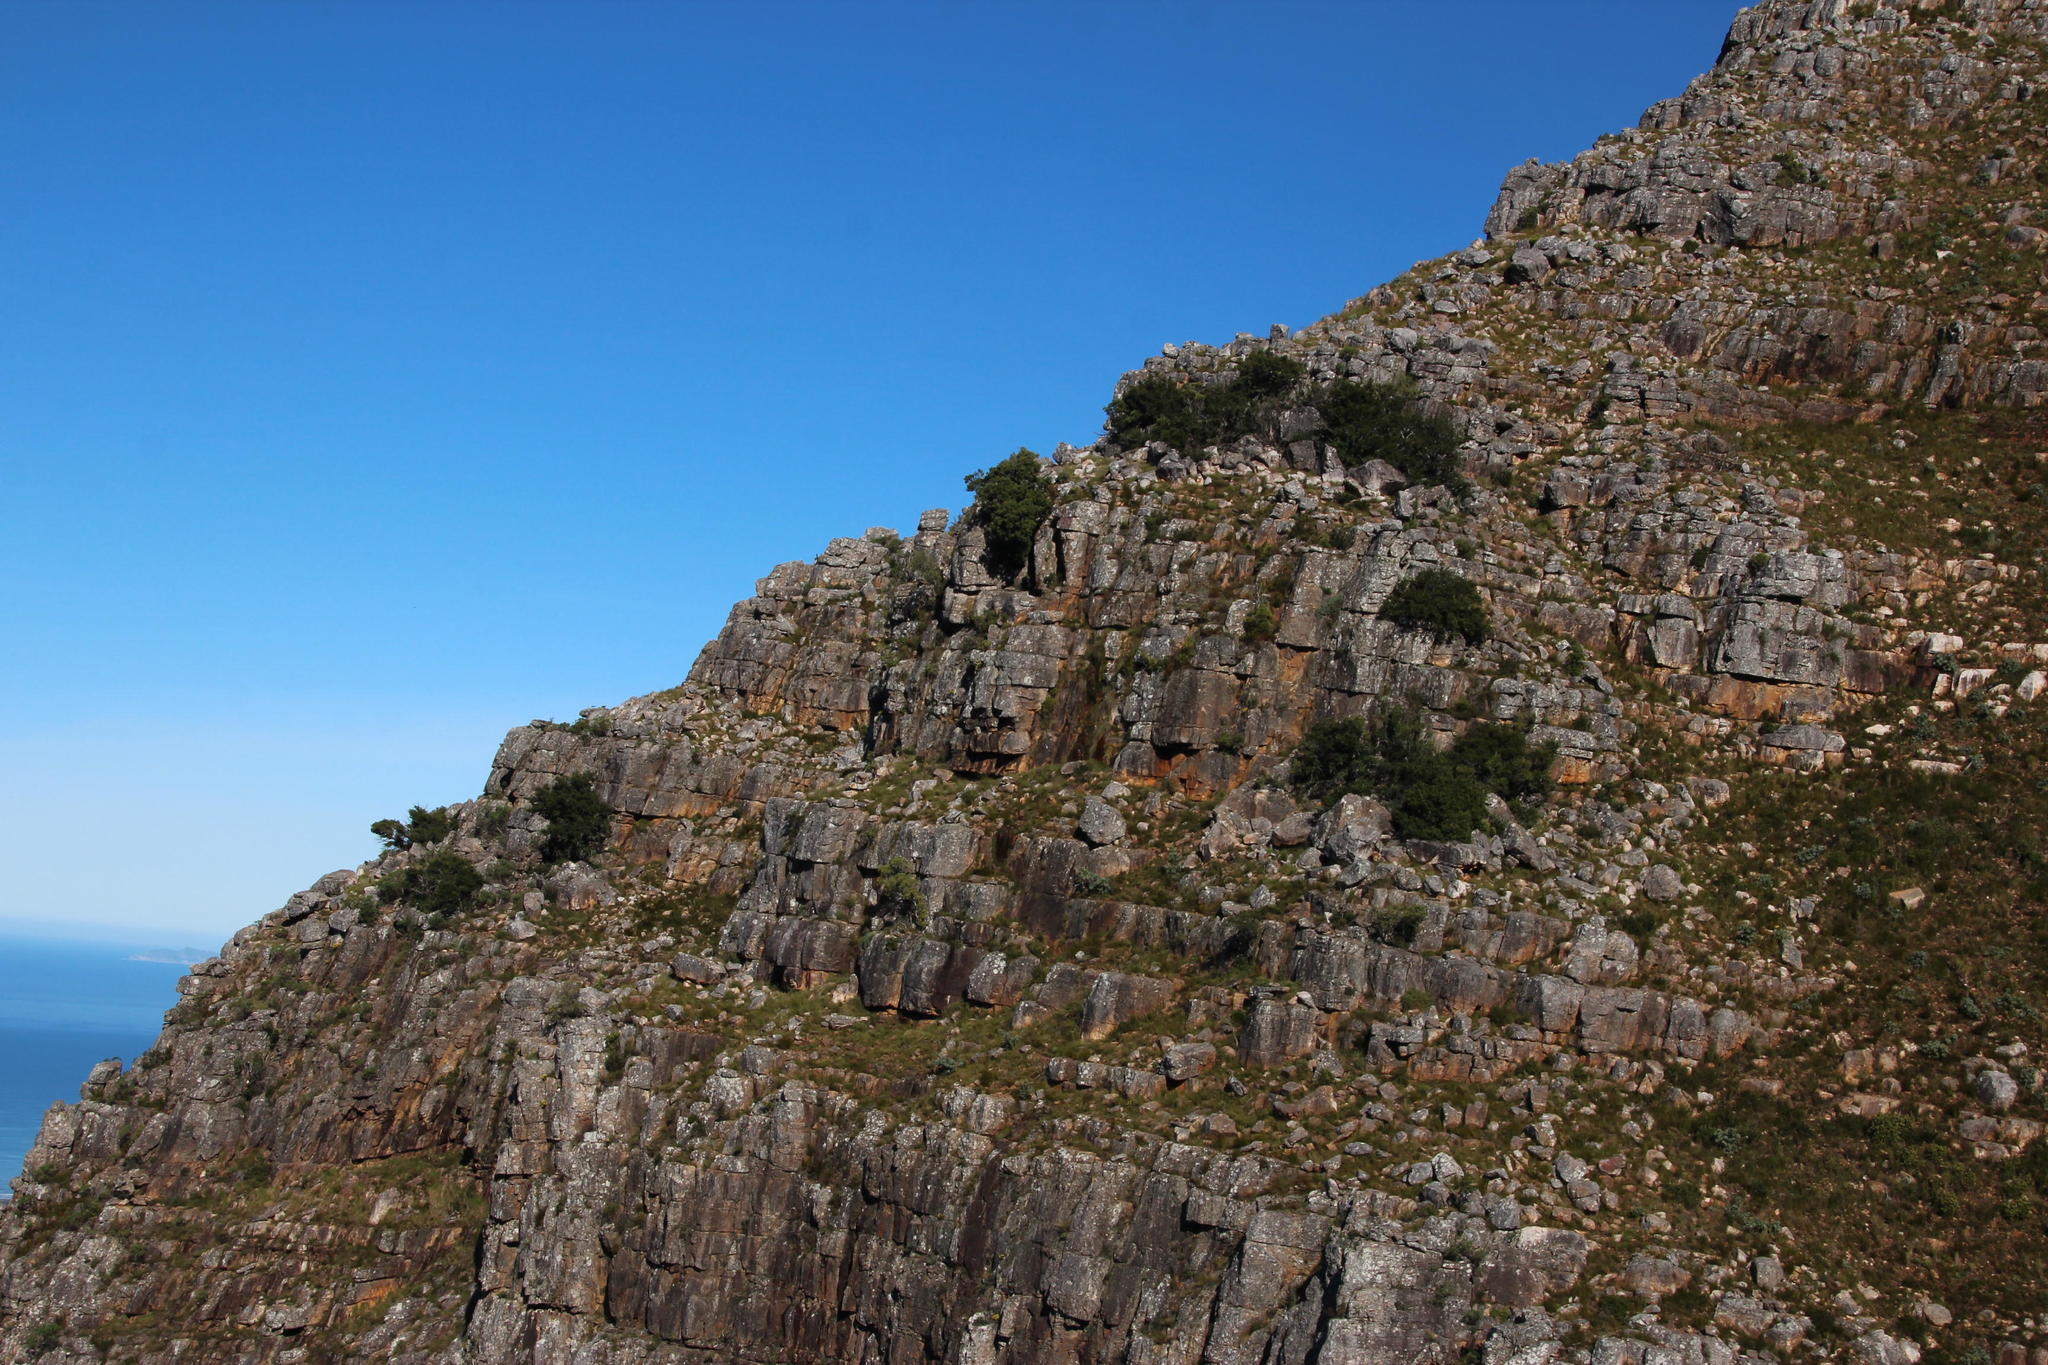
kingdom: Plantae
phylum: Tracheophyta
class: Pinopsida
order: Pinales
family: Podocarpaceae
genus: Podocarpus
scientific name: Podocarpus latifolius
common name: True yellowwood
